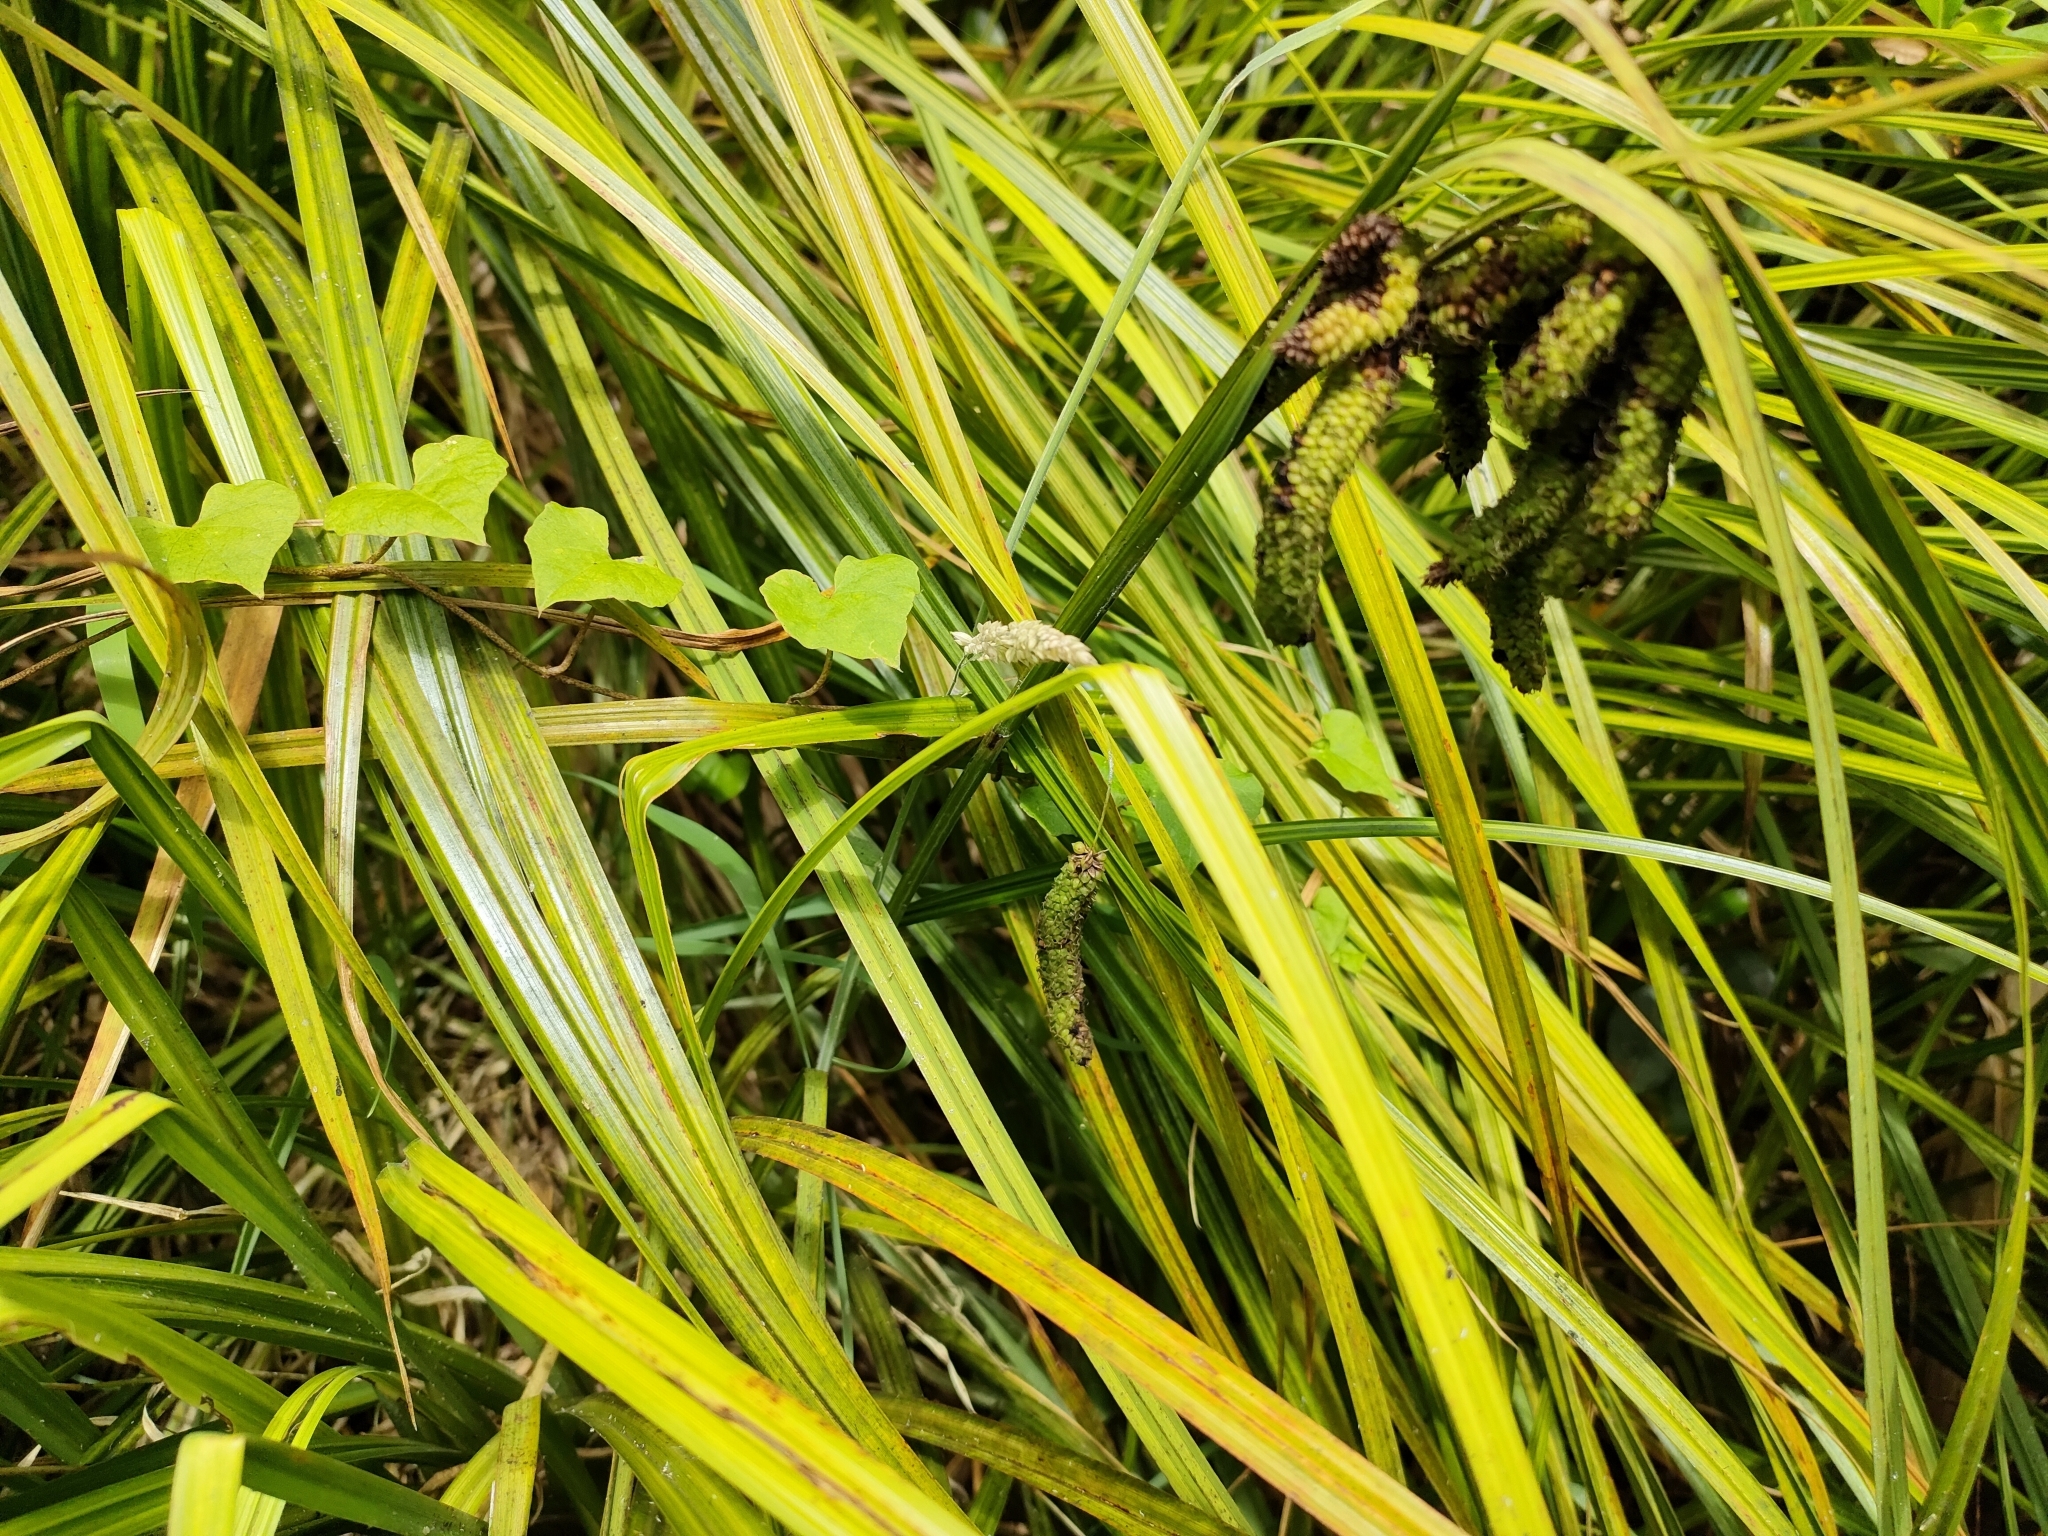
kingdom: Plantae
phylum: Tracheophyta
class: Liliopsida
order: Poales
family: Cyperaceae
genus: Carex
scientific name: Carex geminata
